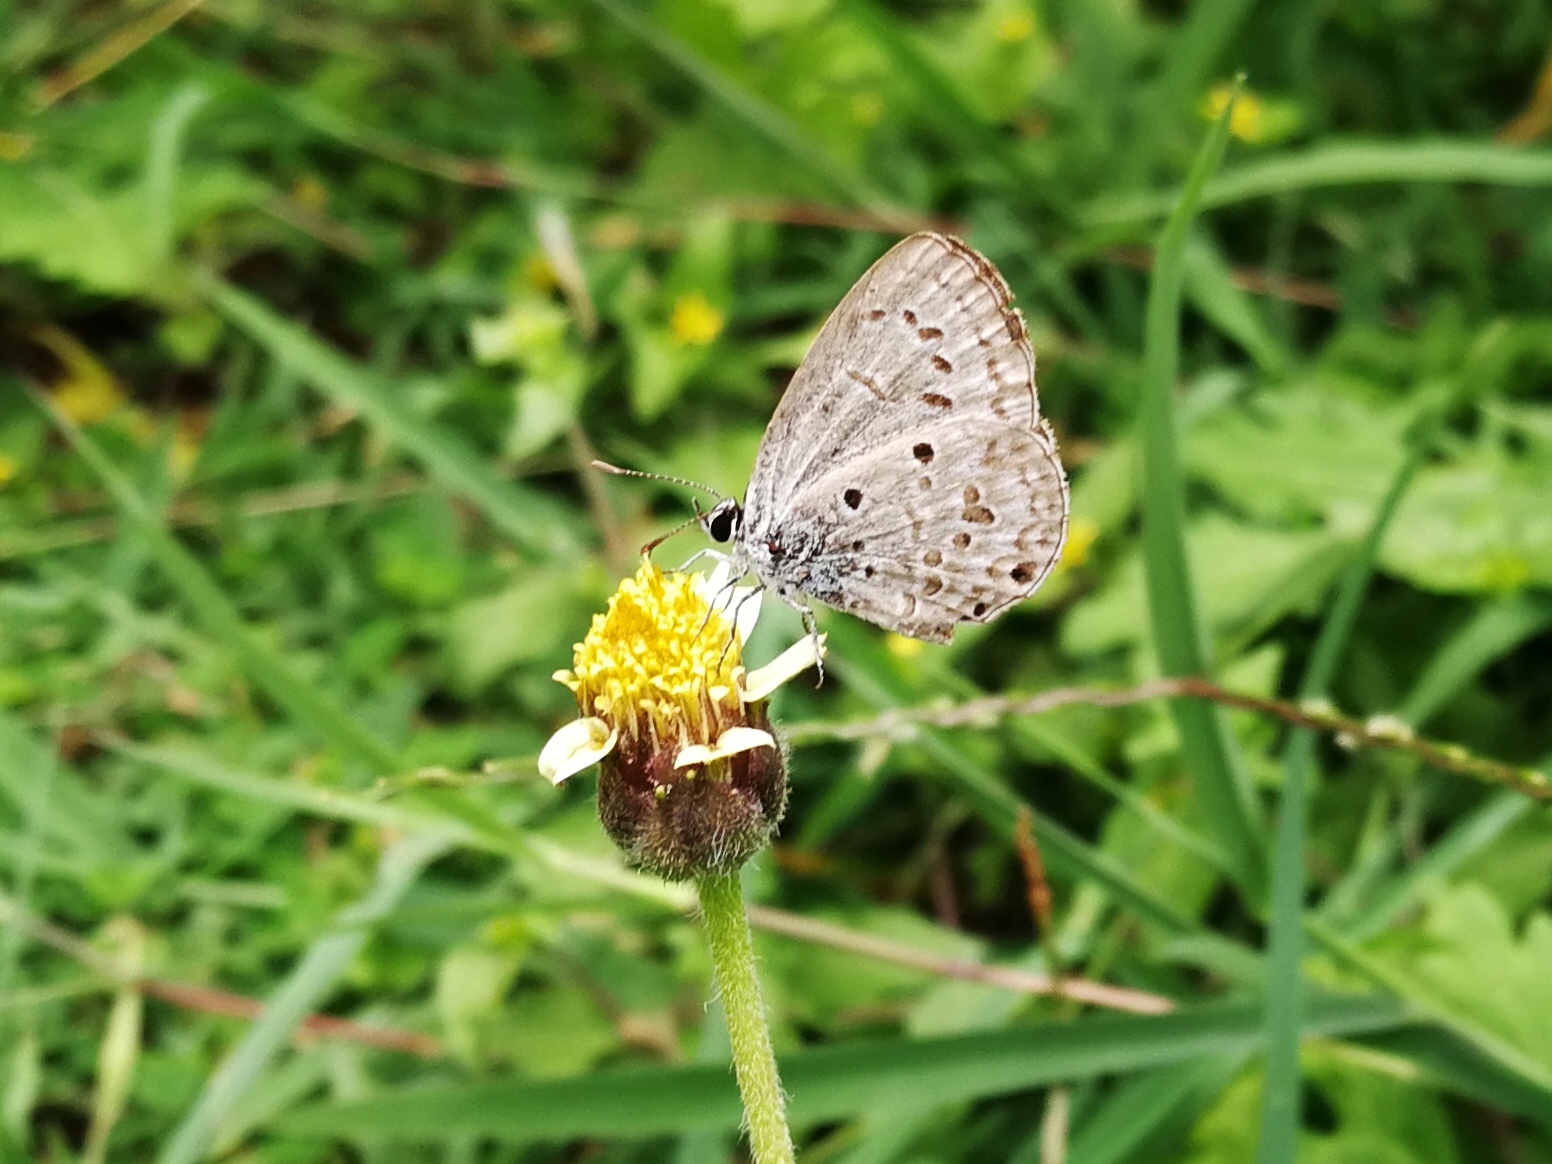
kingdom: Animalia
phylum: Arthropoda
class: Insecta
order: Lepidoptera
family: Lycaenidae
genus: Chilades
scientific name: Chilades laius
